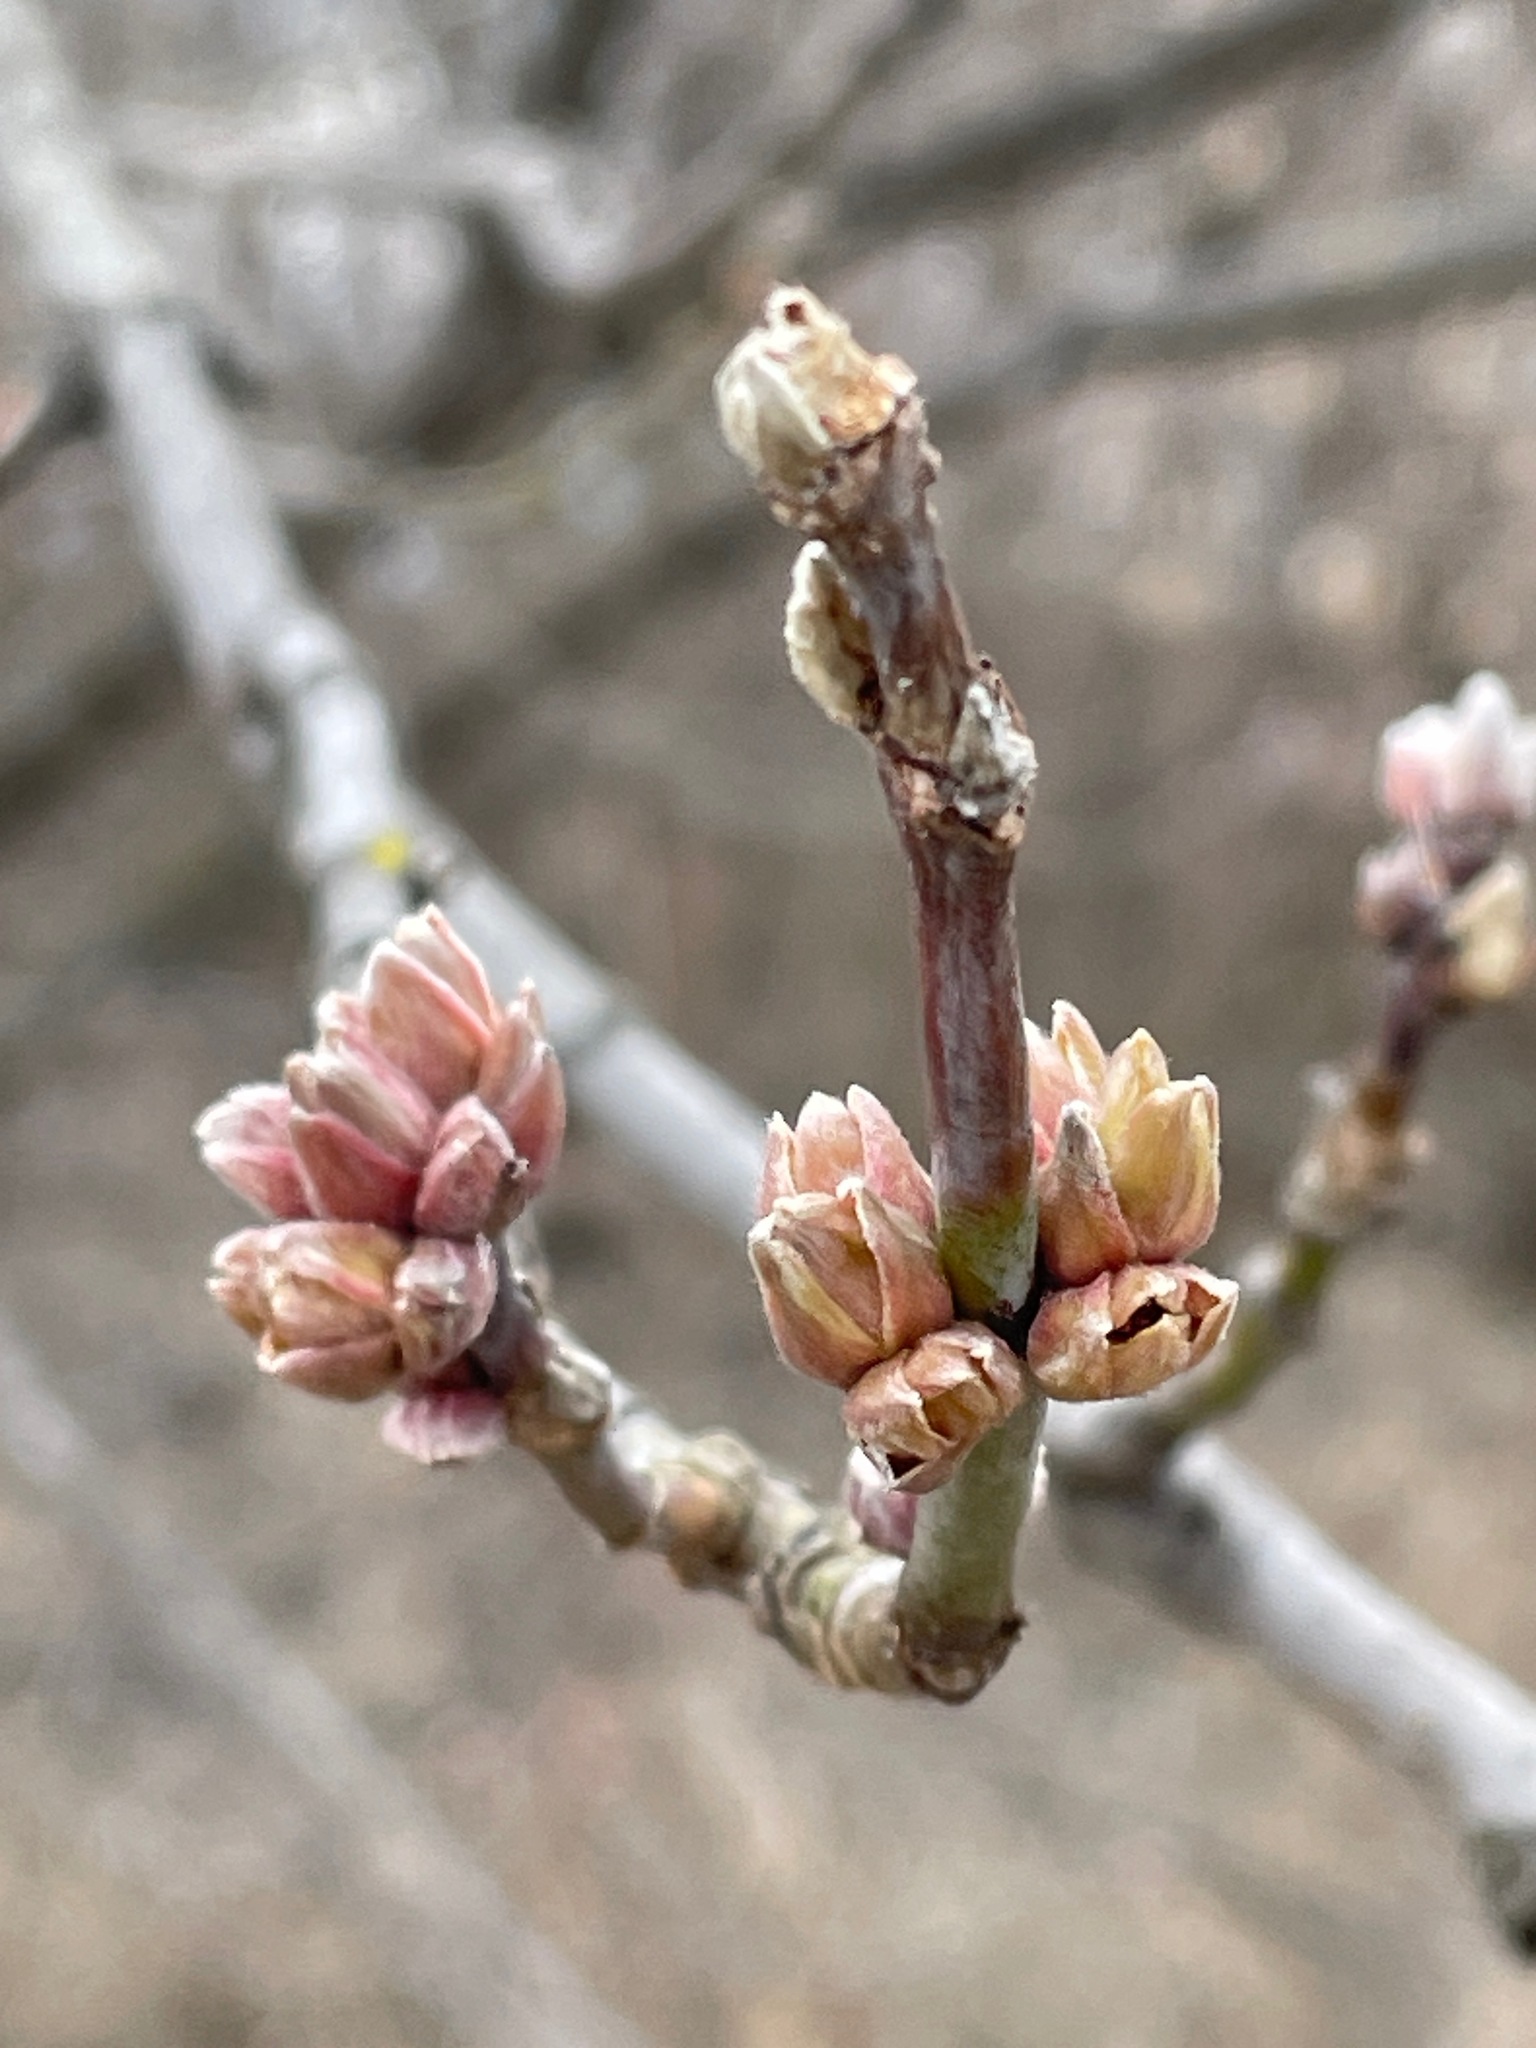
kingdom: Plantae
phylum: Tracheophyta
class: Magnoliopsida
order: Sapindales
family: Sapindaceae
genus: Acer
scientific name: Acer negundo
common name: Ashleaf maple
